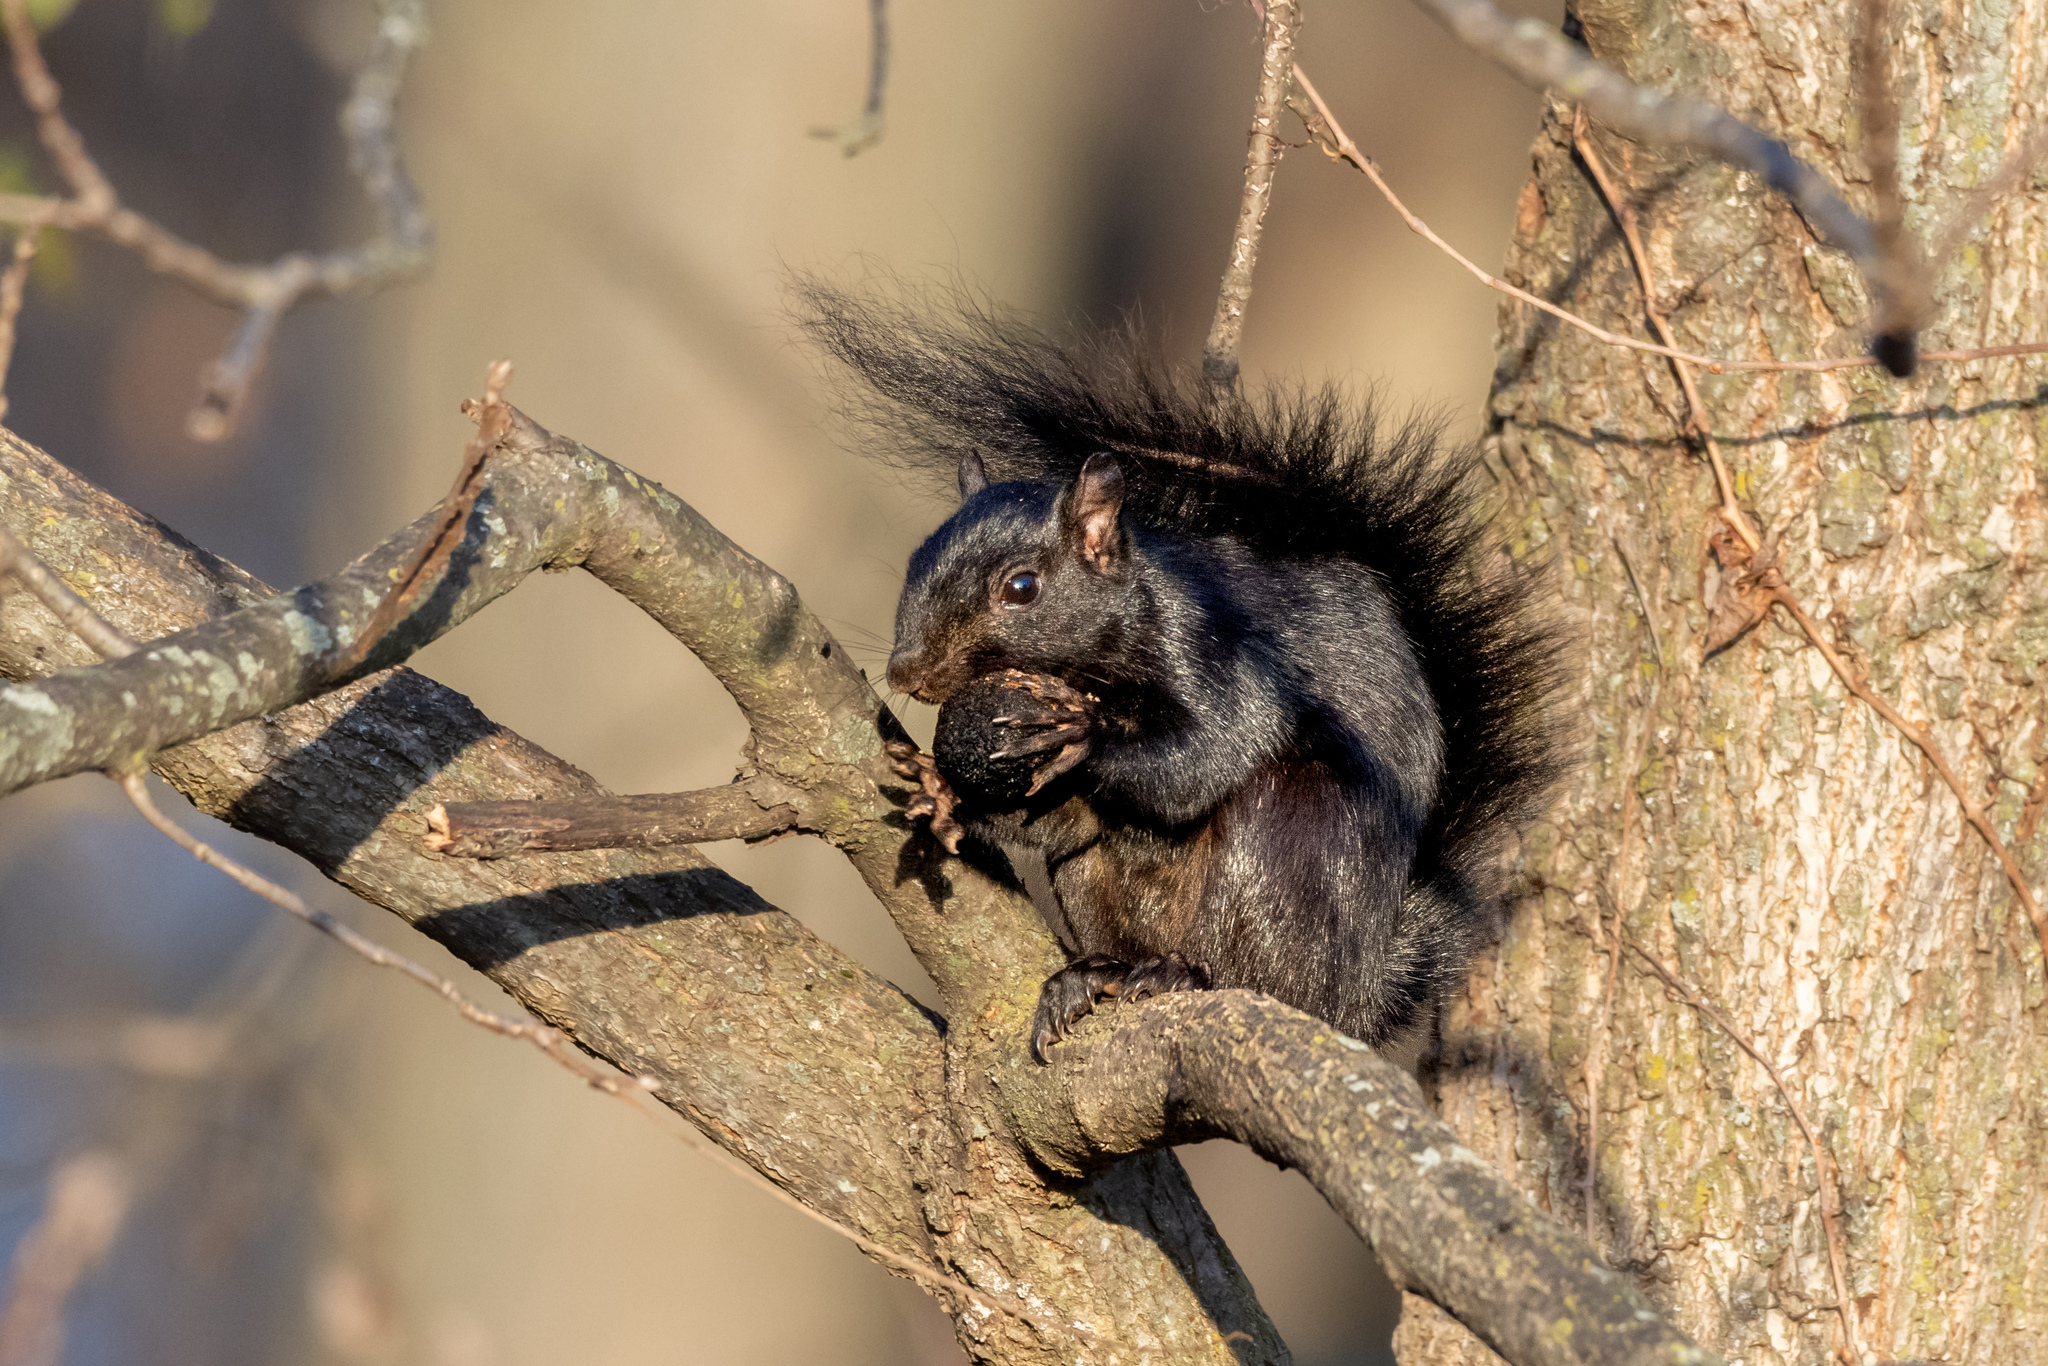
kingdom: Animalia
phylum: Chordata
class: Mammalia
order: Rodentia
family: Sciuridae
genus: Sciurus
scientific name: Sciurus carolinensis
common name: Eastern gray squirrel
